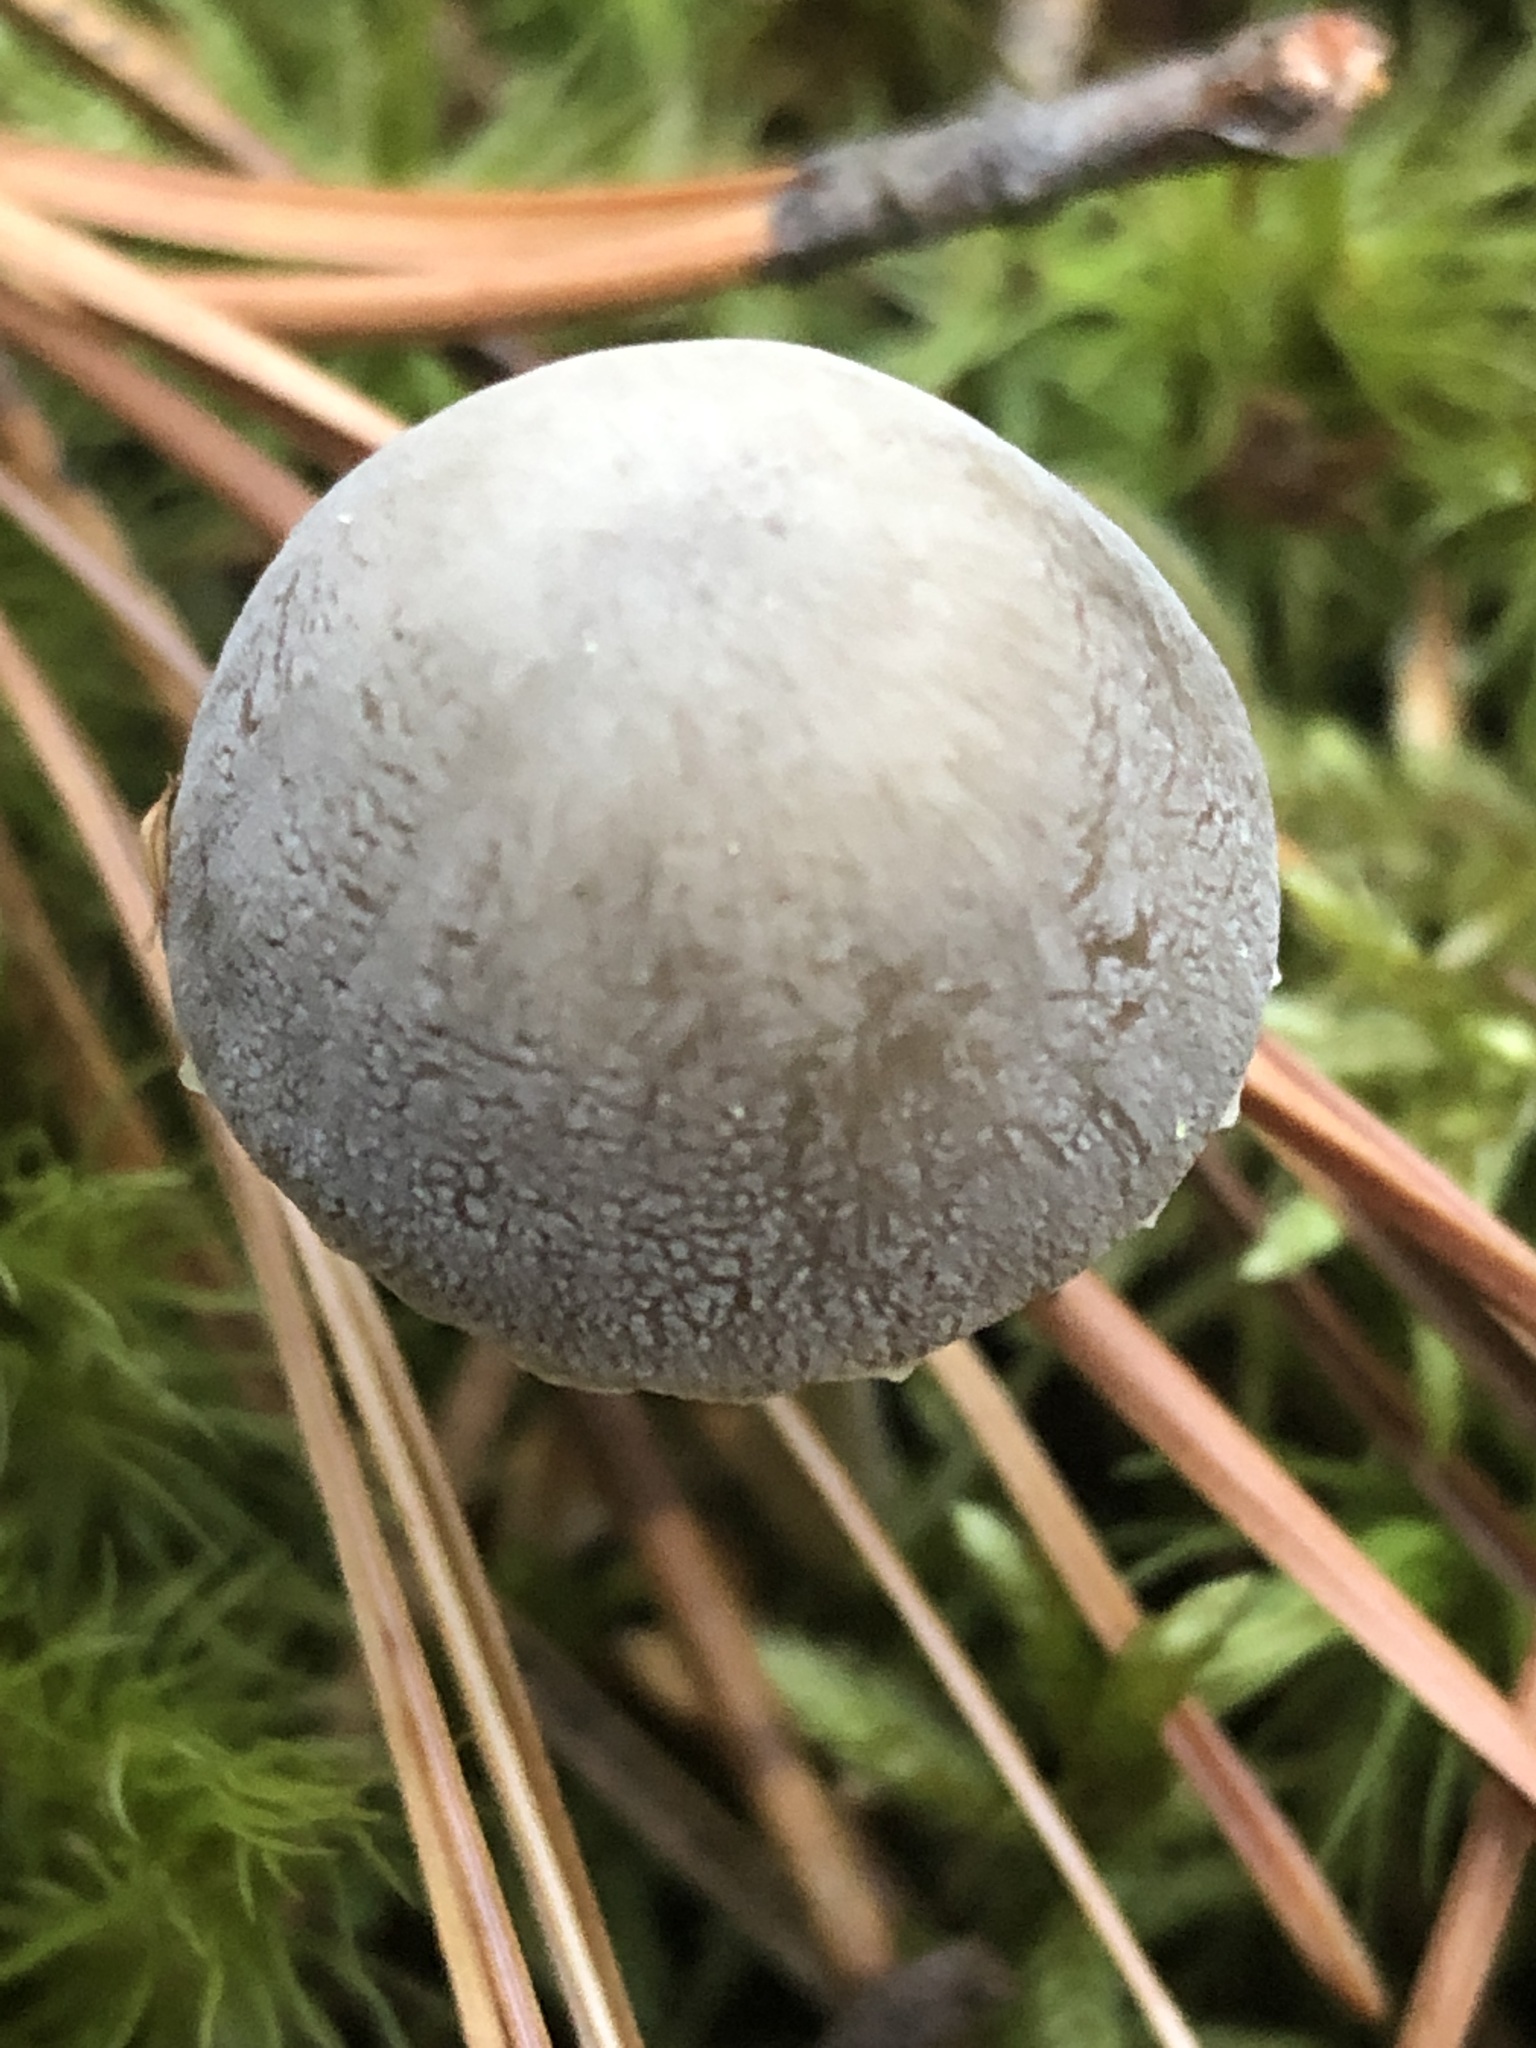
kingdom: Fungi
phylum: Basidiomycota
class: Agaricomycetes
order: Agaricales
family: Mycenaceae
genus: Mycena
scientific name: Mycena griseoviridis
